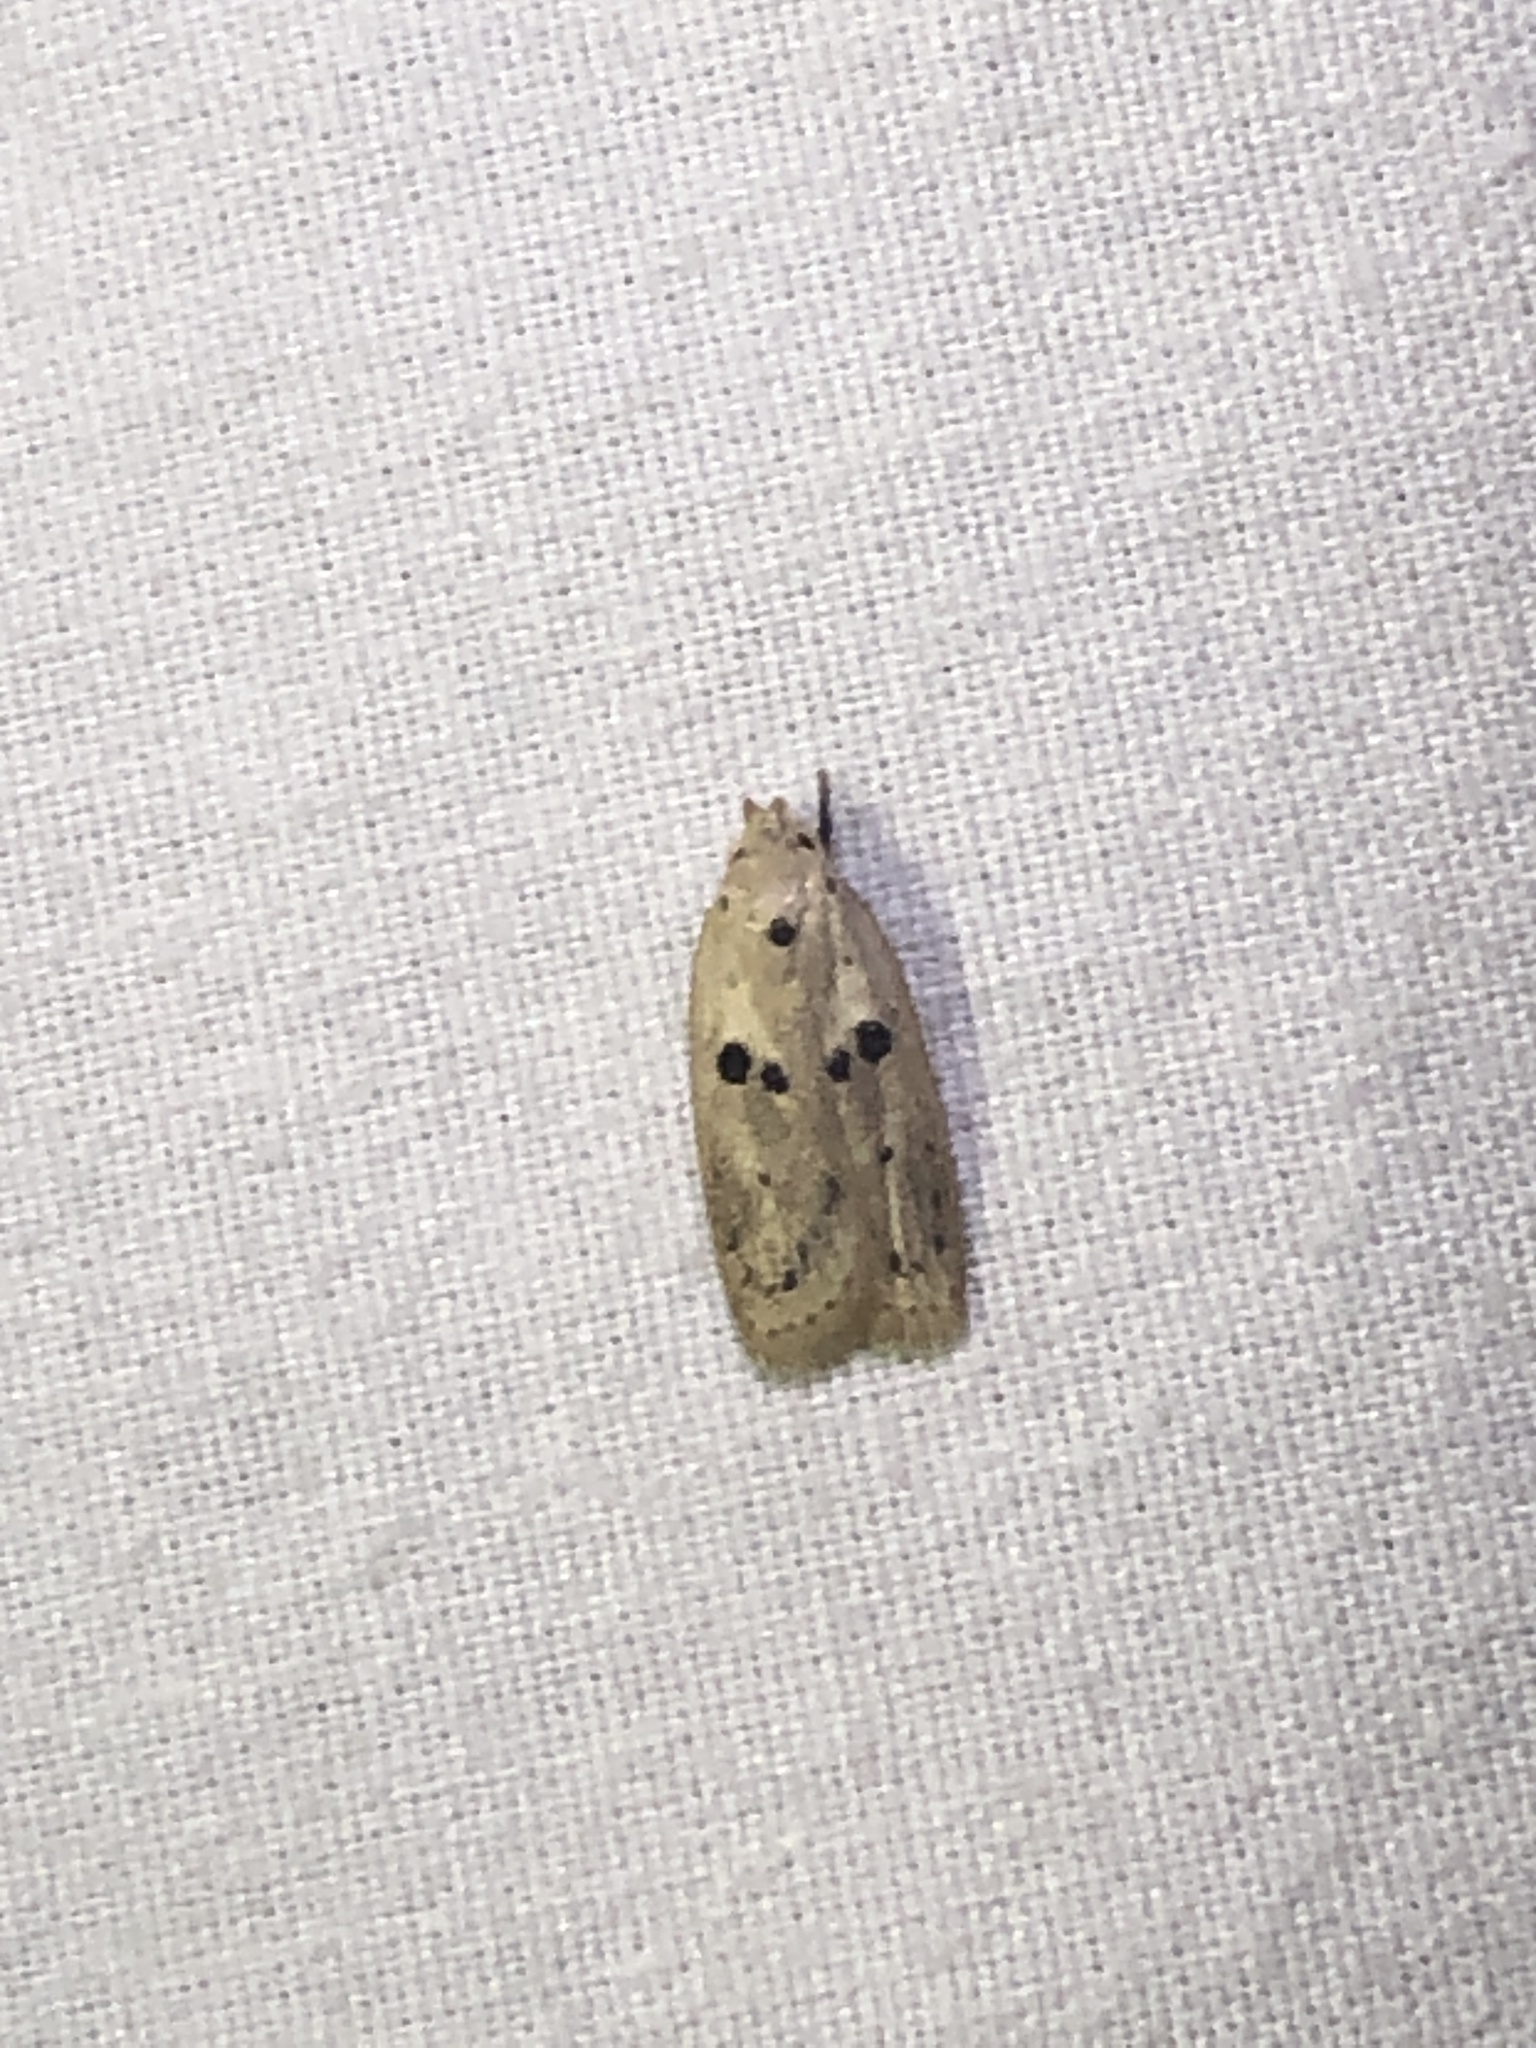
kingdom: Animalia
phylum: Arthropoda
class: Insecta
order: Lepidoptera
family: Peleopodidae
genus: Scythropiodes
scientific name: Scythropiodes issikii
